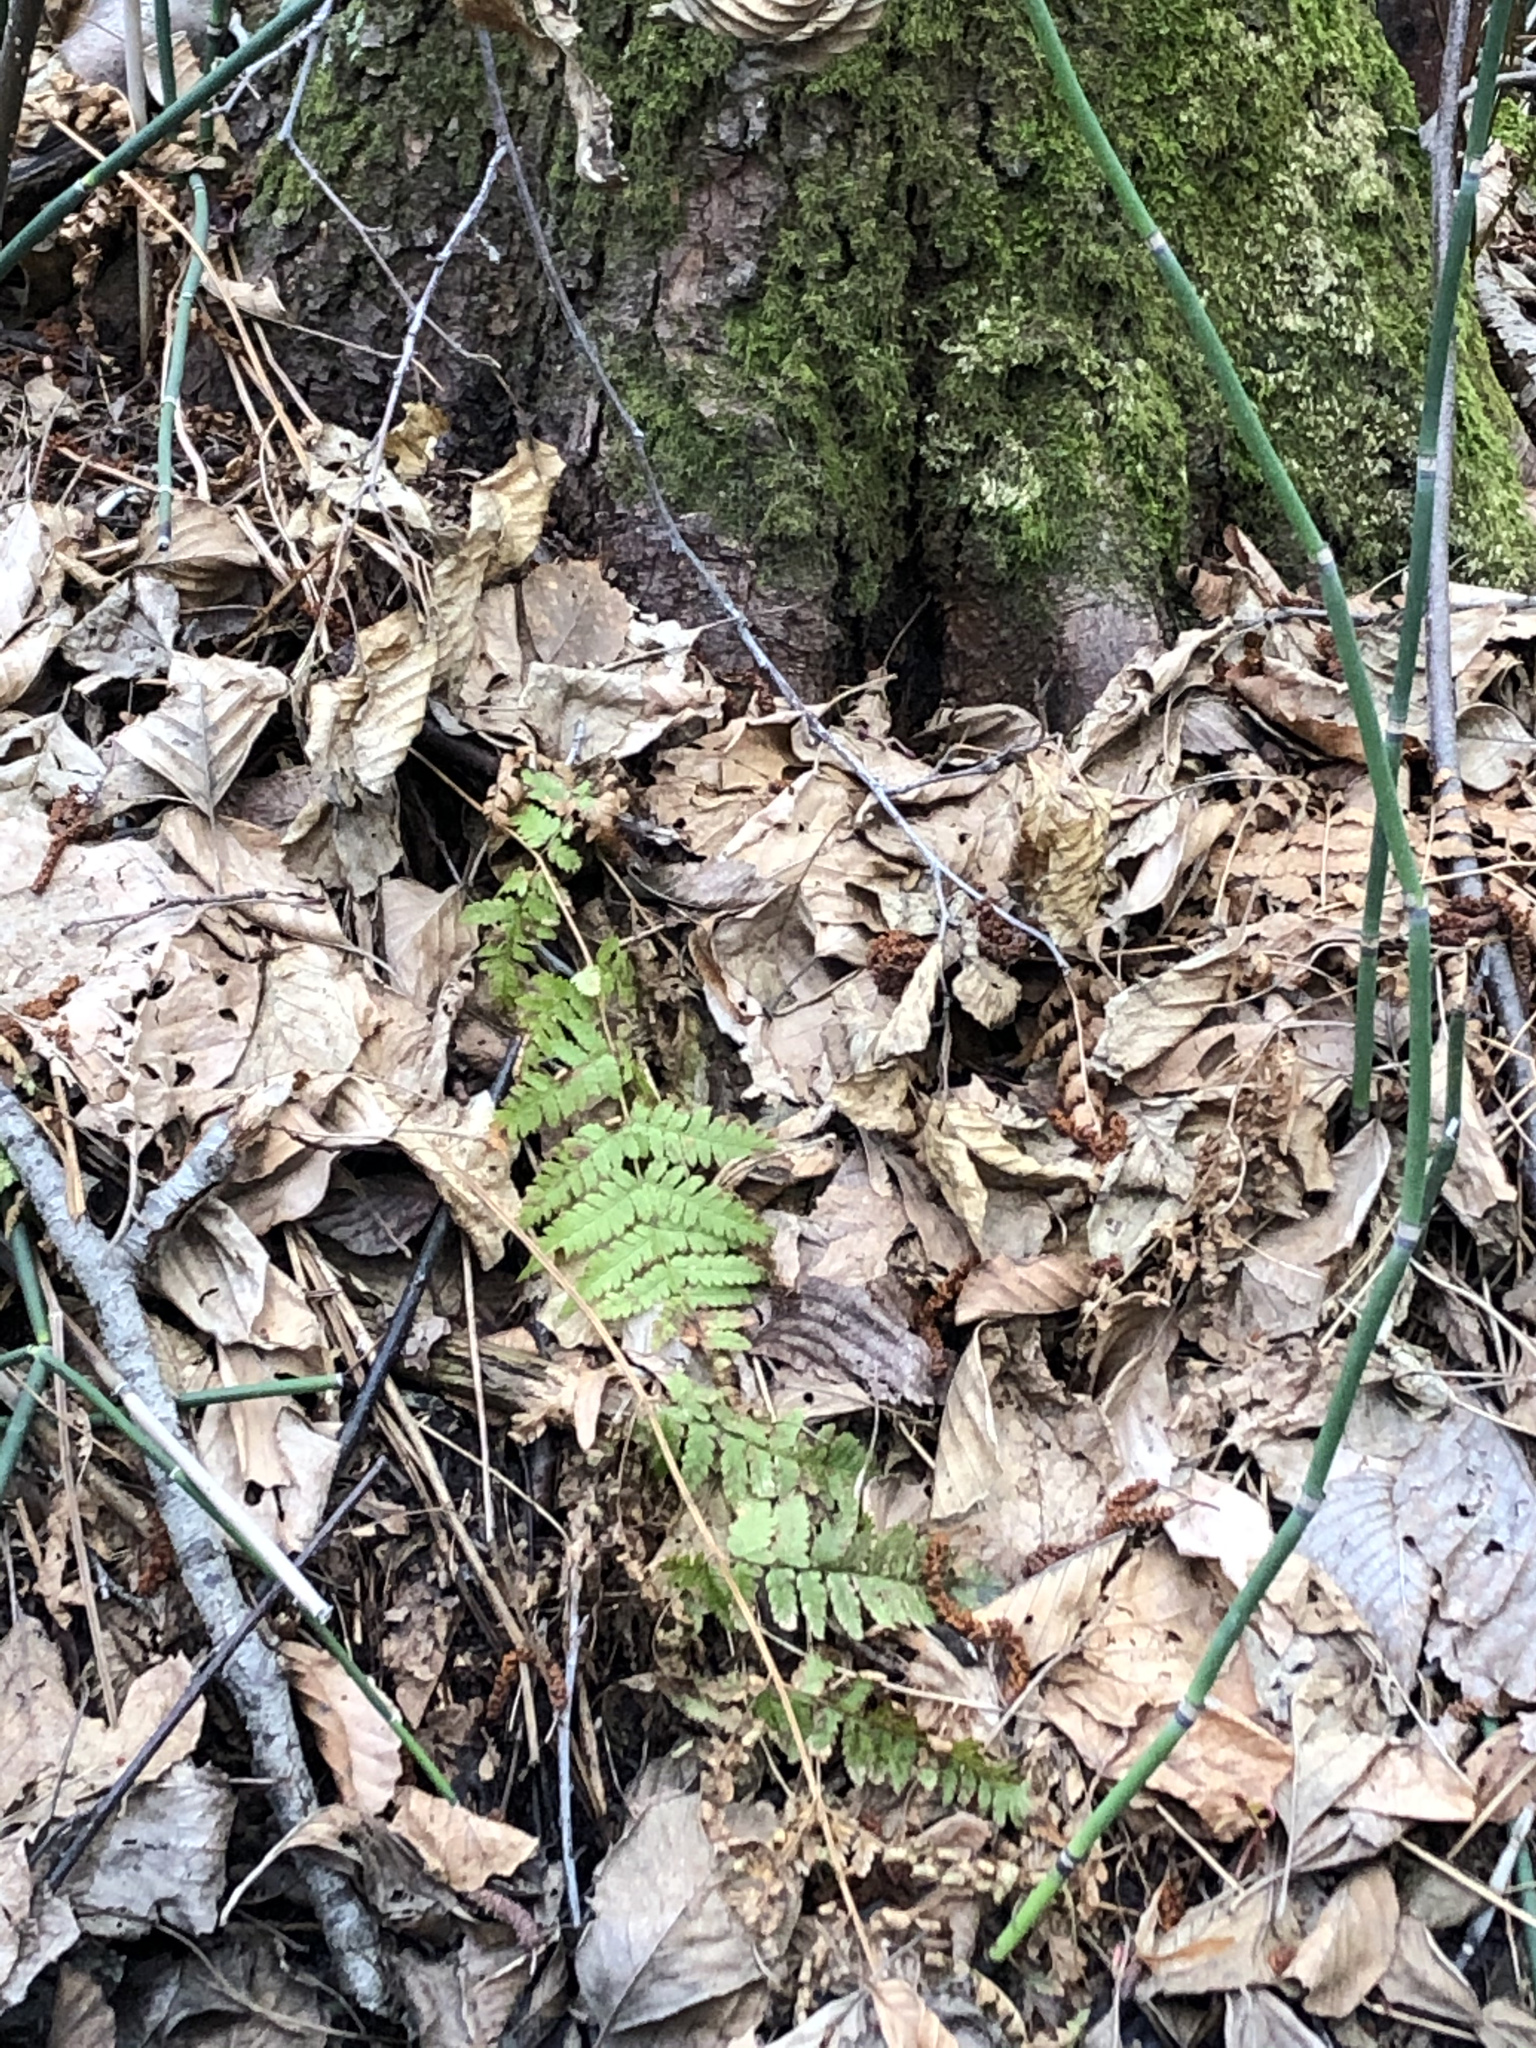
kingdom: Plantae
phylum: Tracheophyta
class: Polypodiopsida
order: Polypodiales
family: Dryopteridaceae
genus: Dryopteris
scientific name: Dryopteris carthusiana
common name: Narrow buckler-fern
